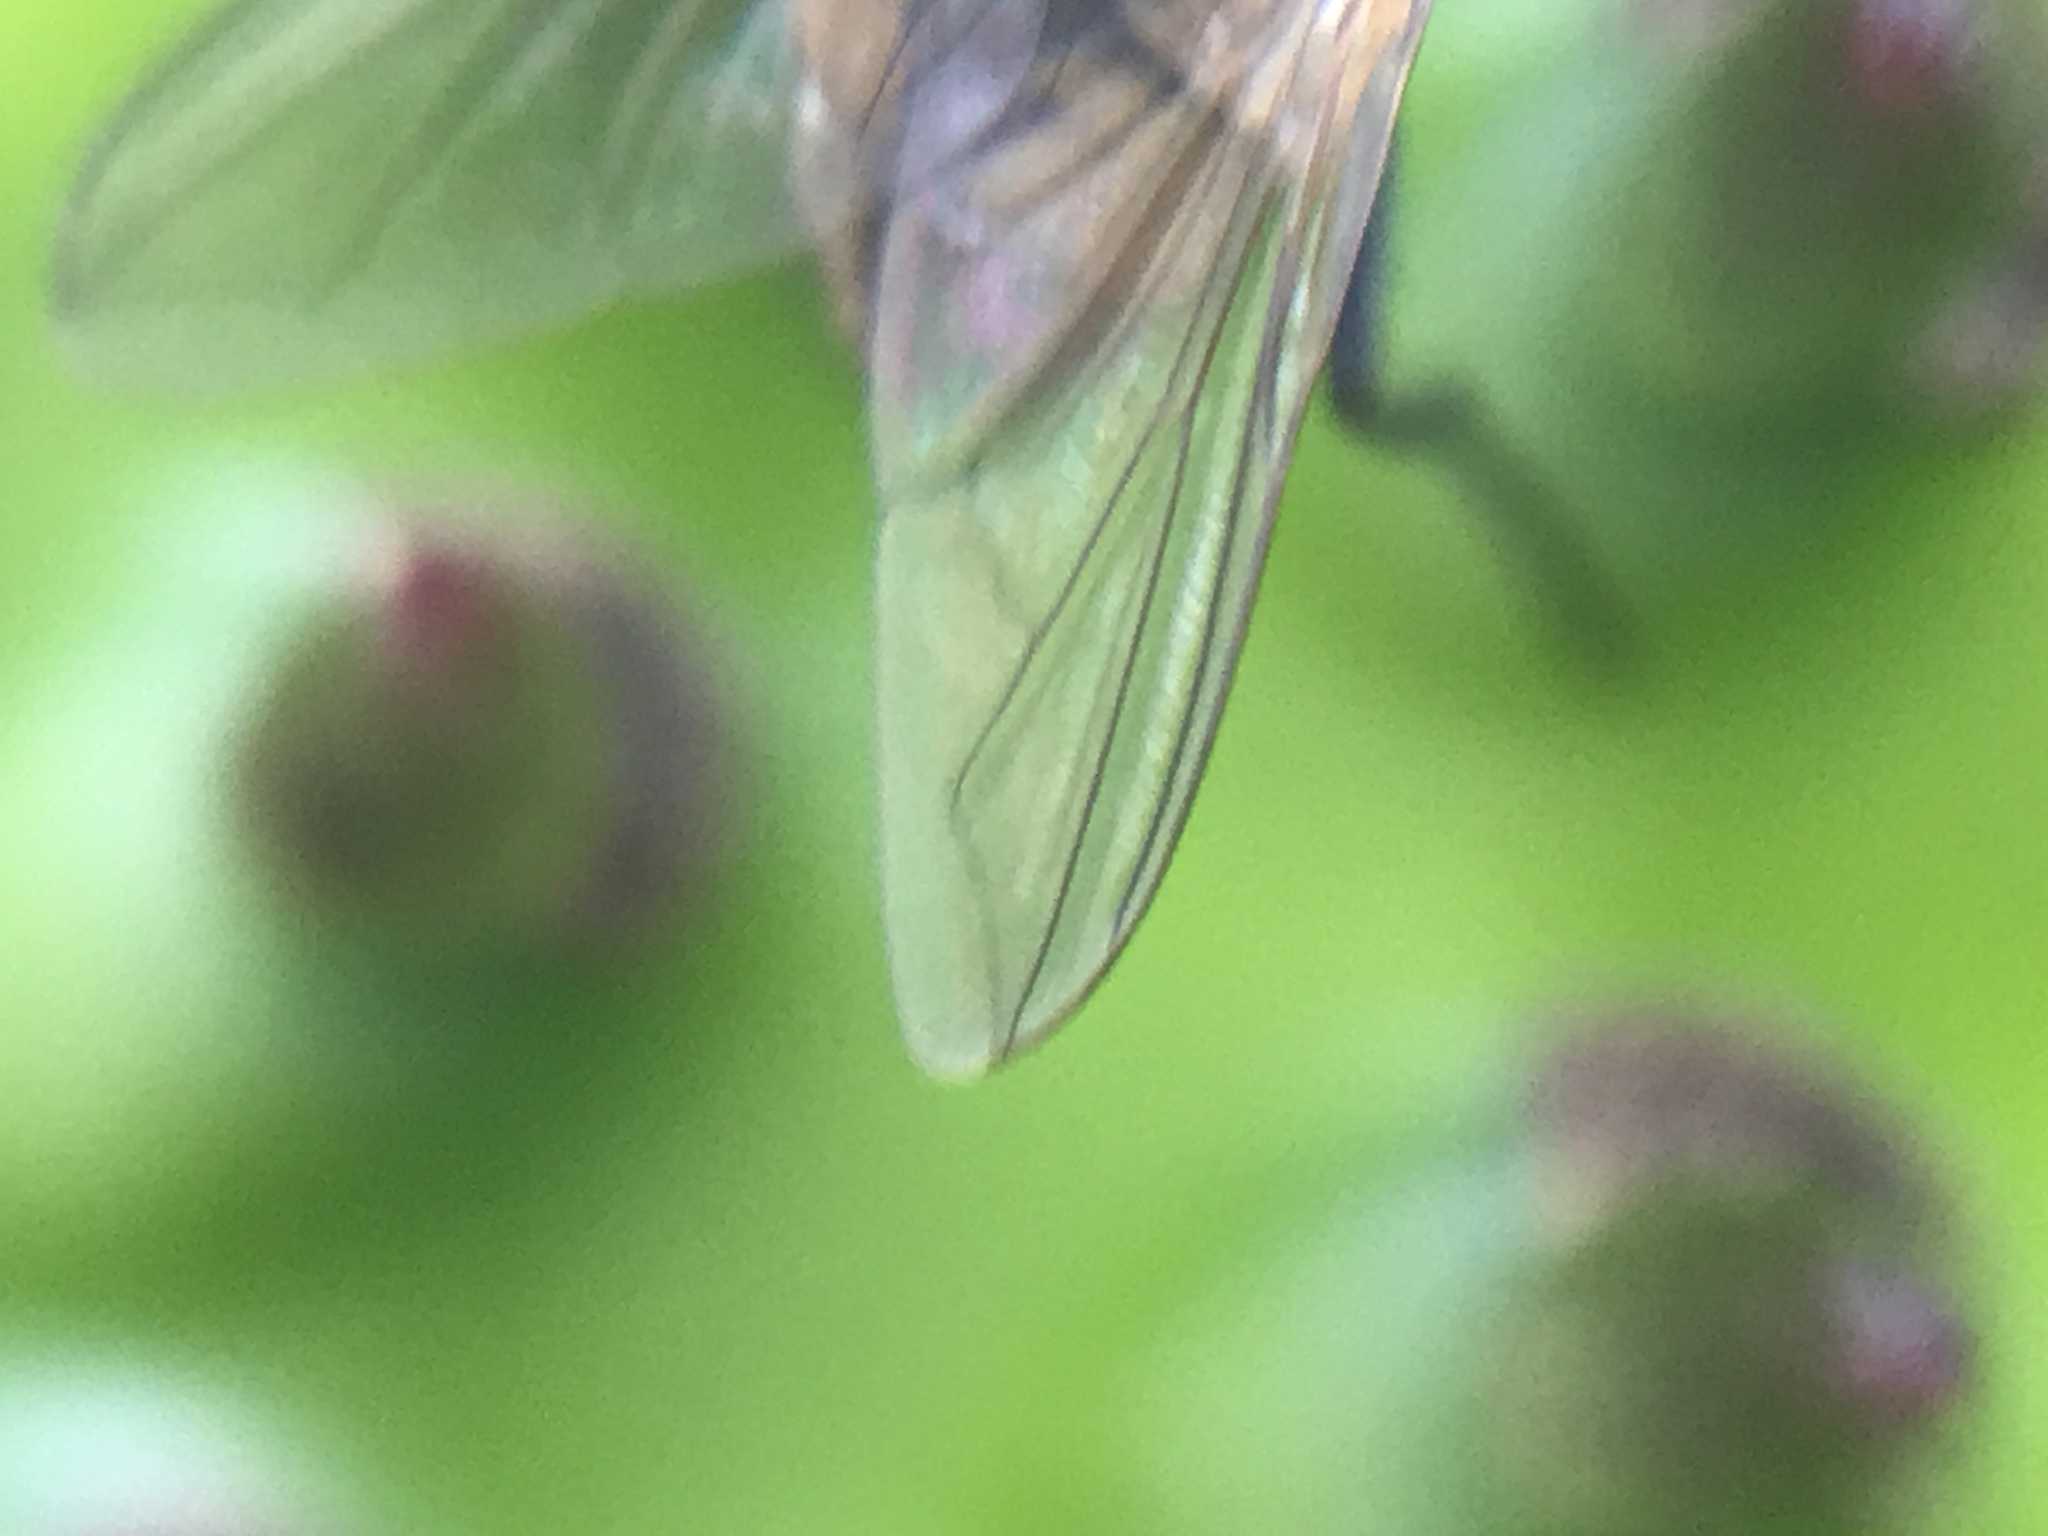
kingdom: Animalia
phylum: Arthropoda
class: Insecta
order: Diptera
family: Muscidae
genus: Musca
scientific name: Musca domestica
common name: House fly
